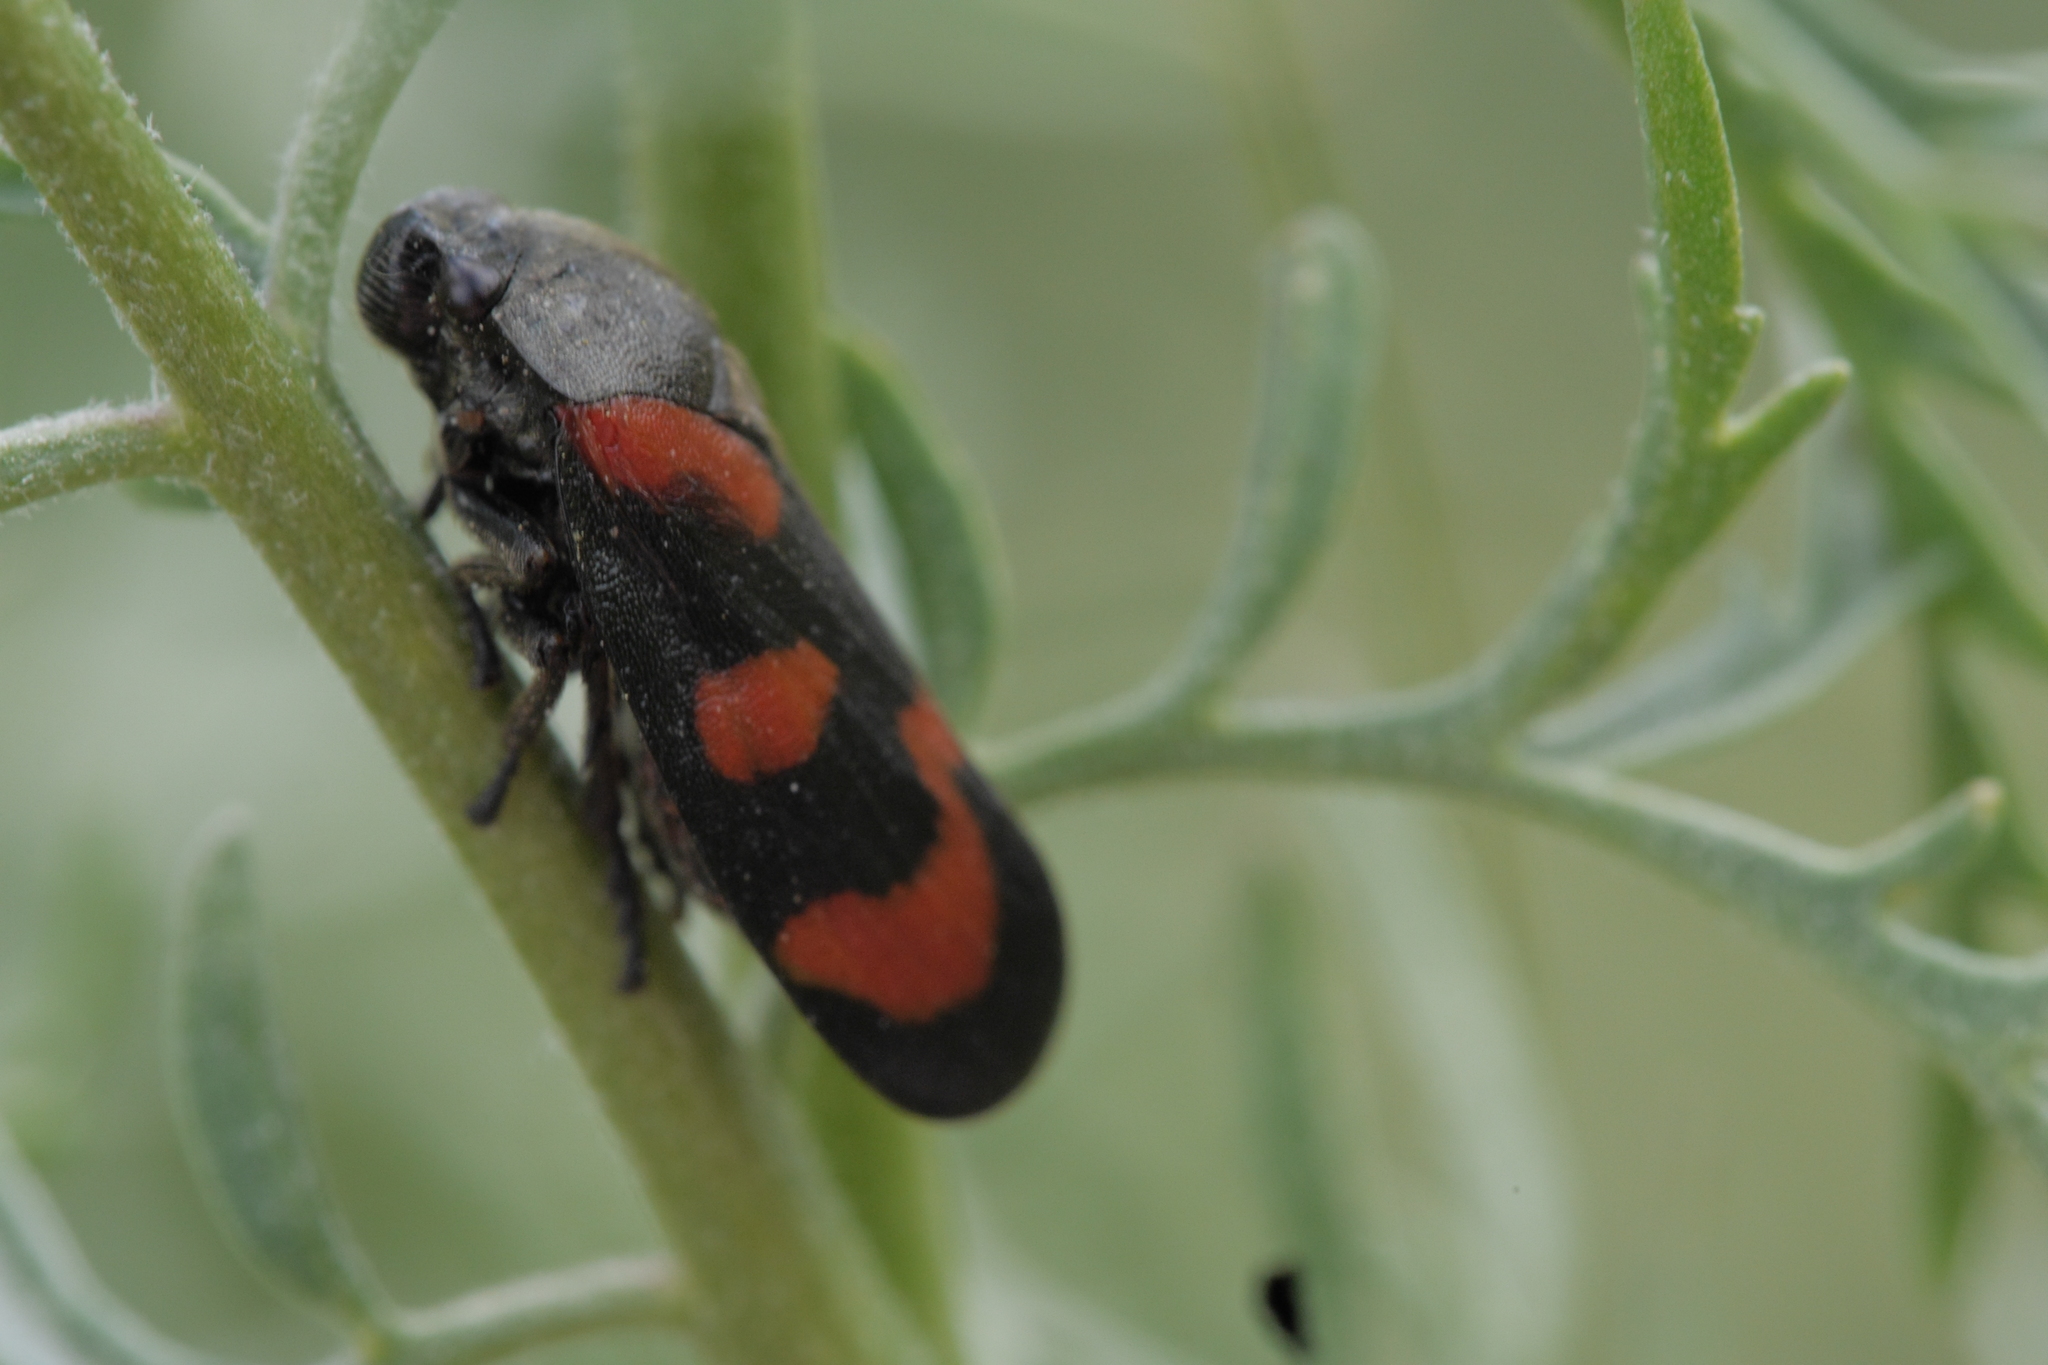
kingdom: Animalia
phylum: Arthropoda
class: Insecta
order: Hemiptera
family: Cercopidae
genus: Cercopis
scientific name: Cercopis vulnerata
